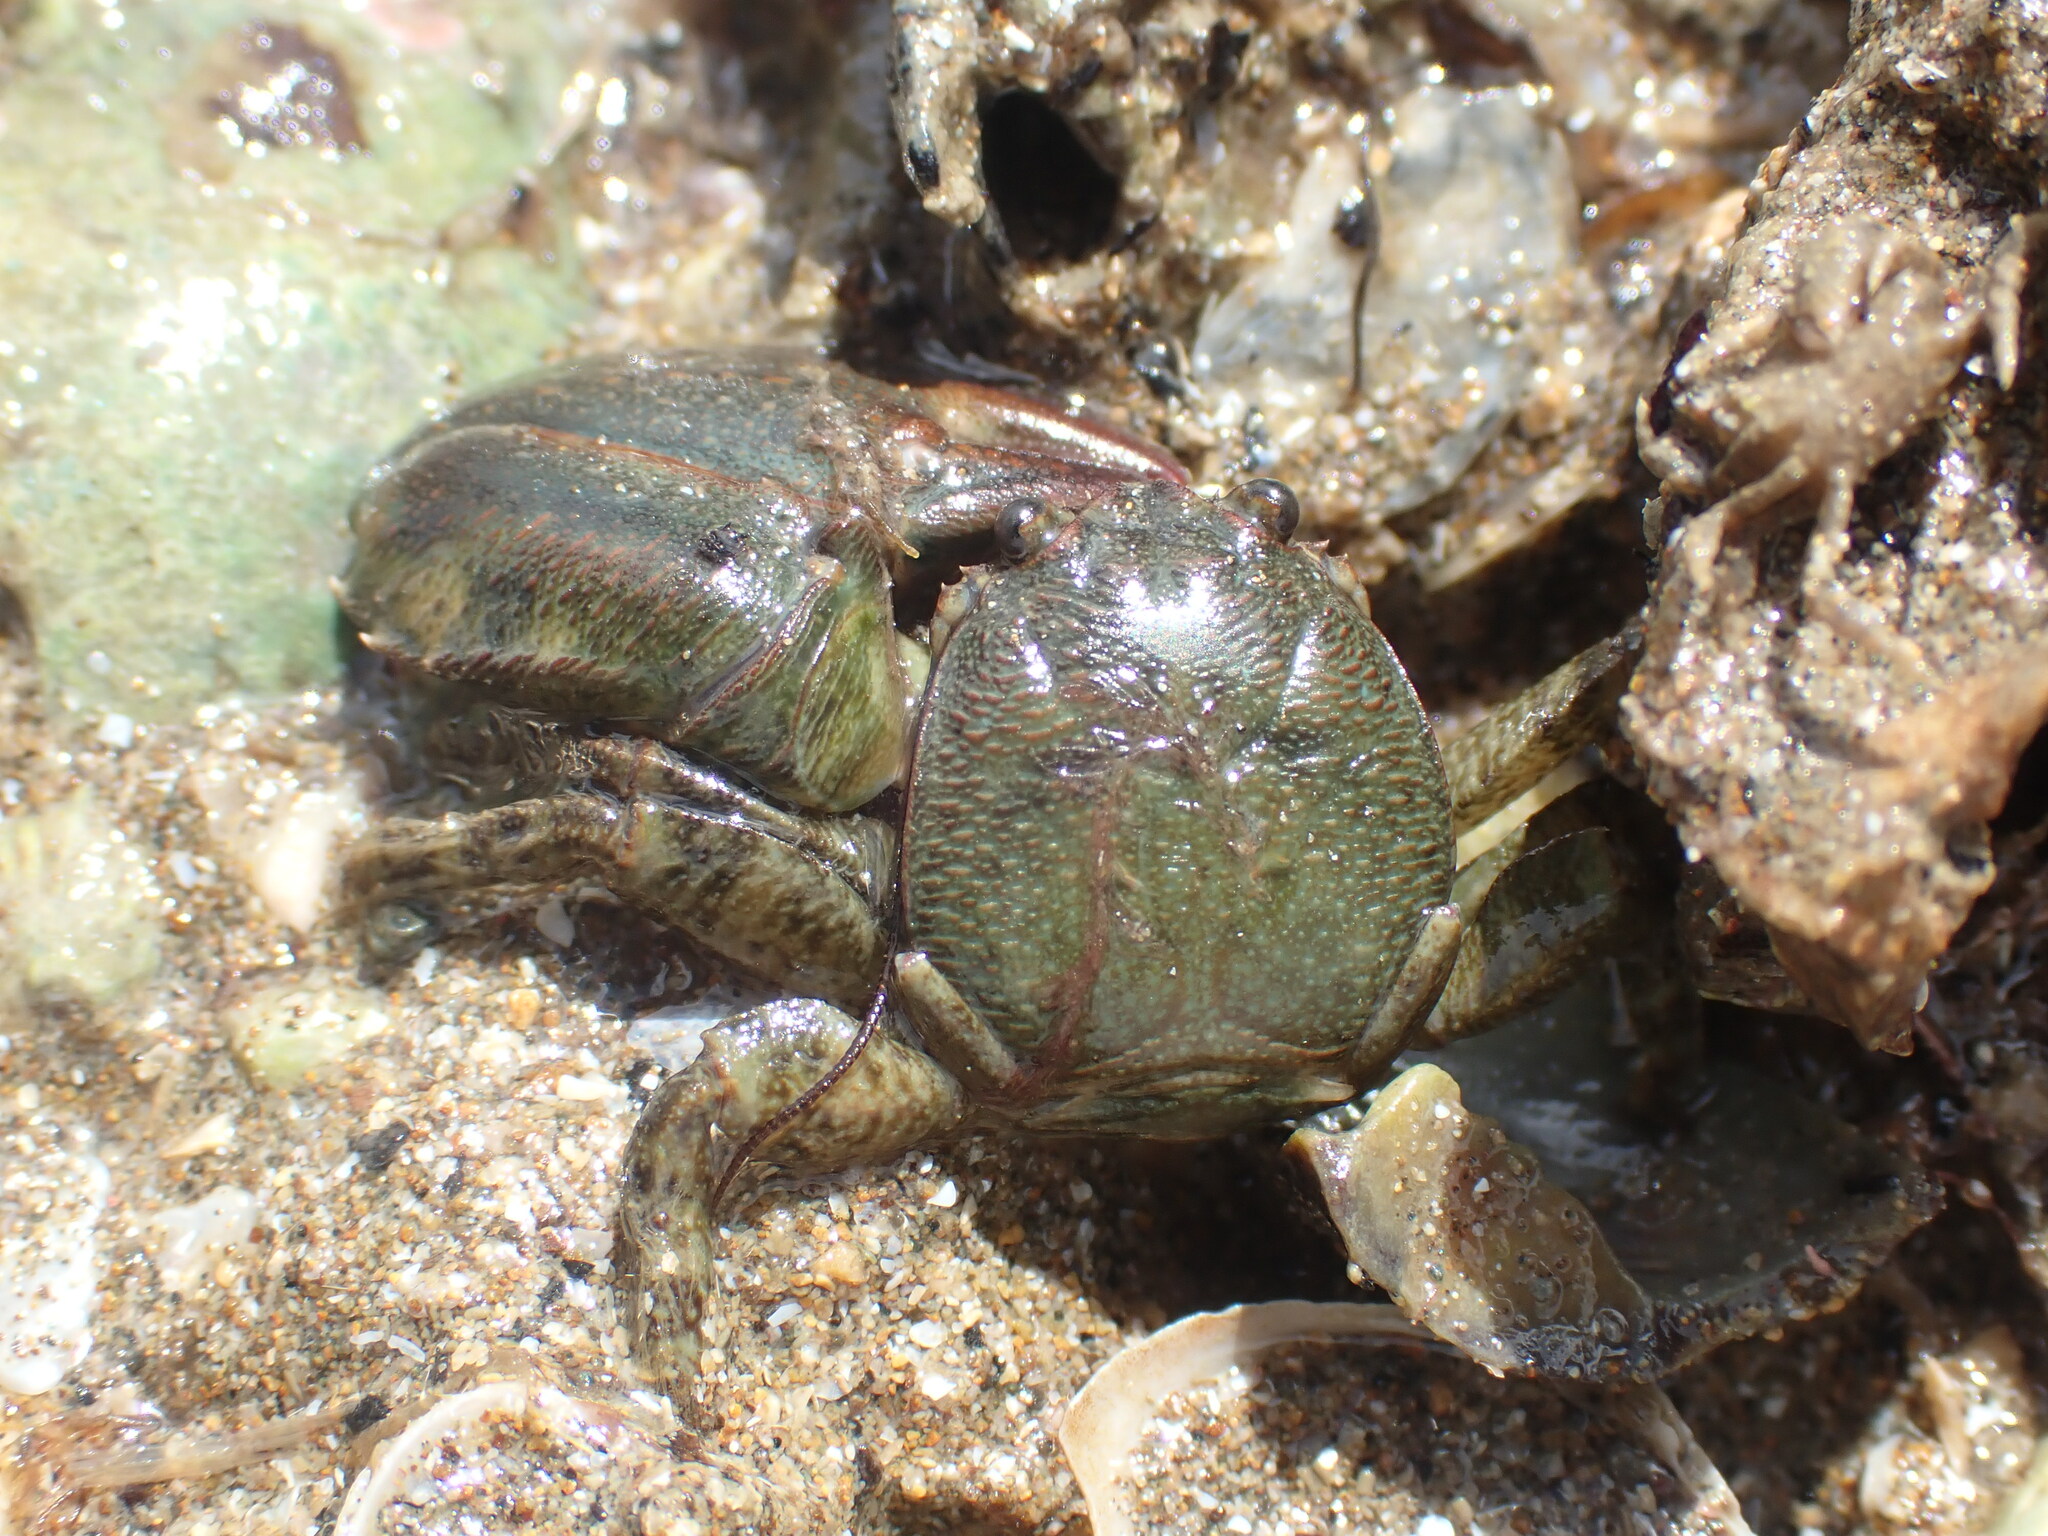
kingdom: Animalia
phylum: Arthropoda
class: Malacostraca
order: Decapoda
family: Porcellanidae
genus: Petrolisthes
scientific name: Petrolisthes elongatus
